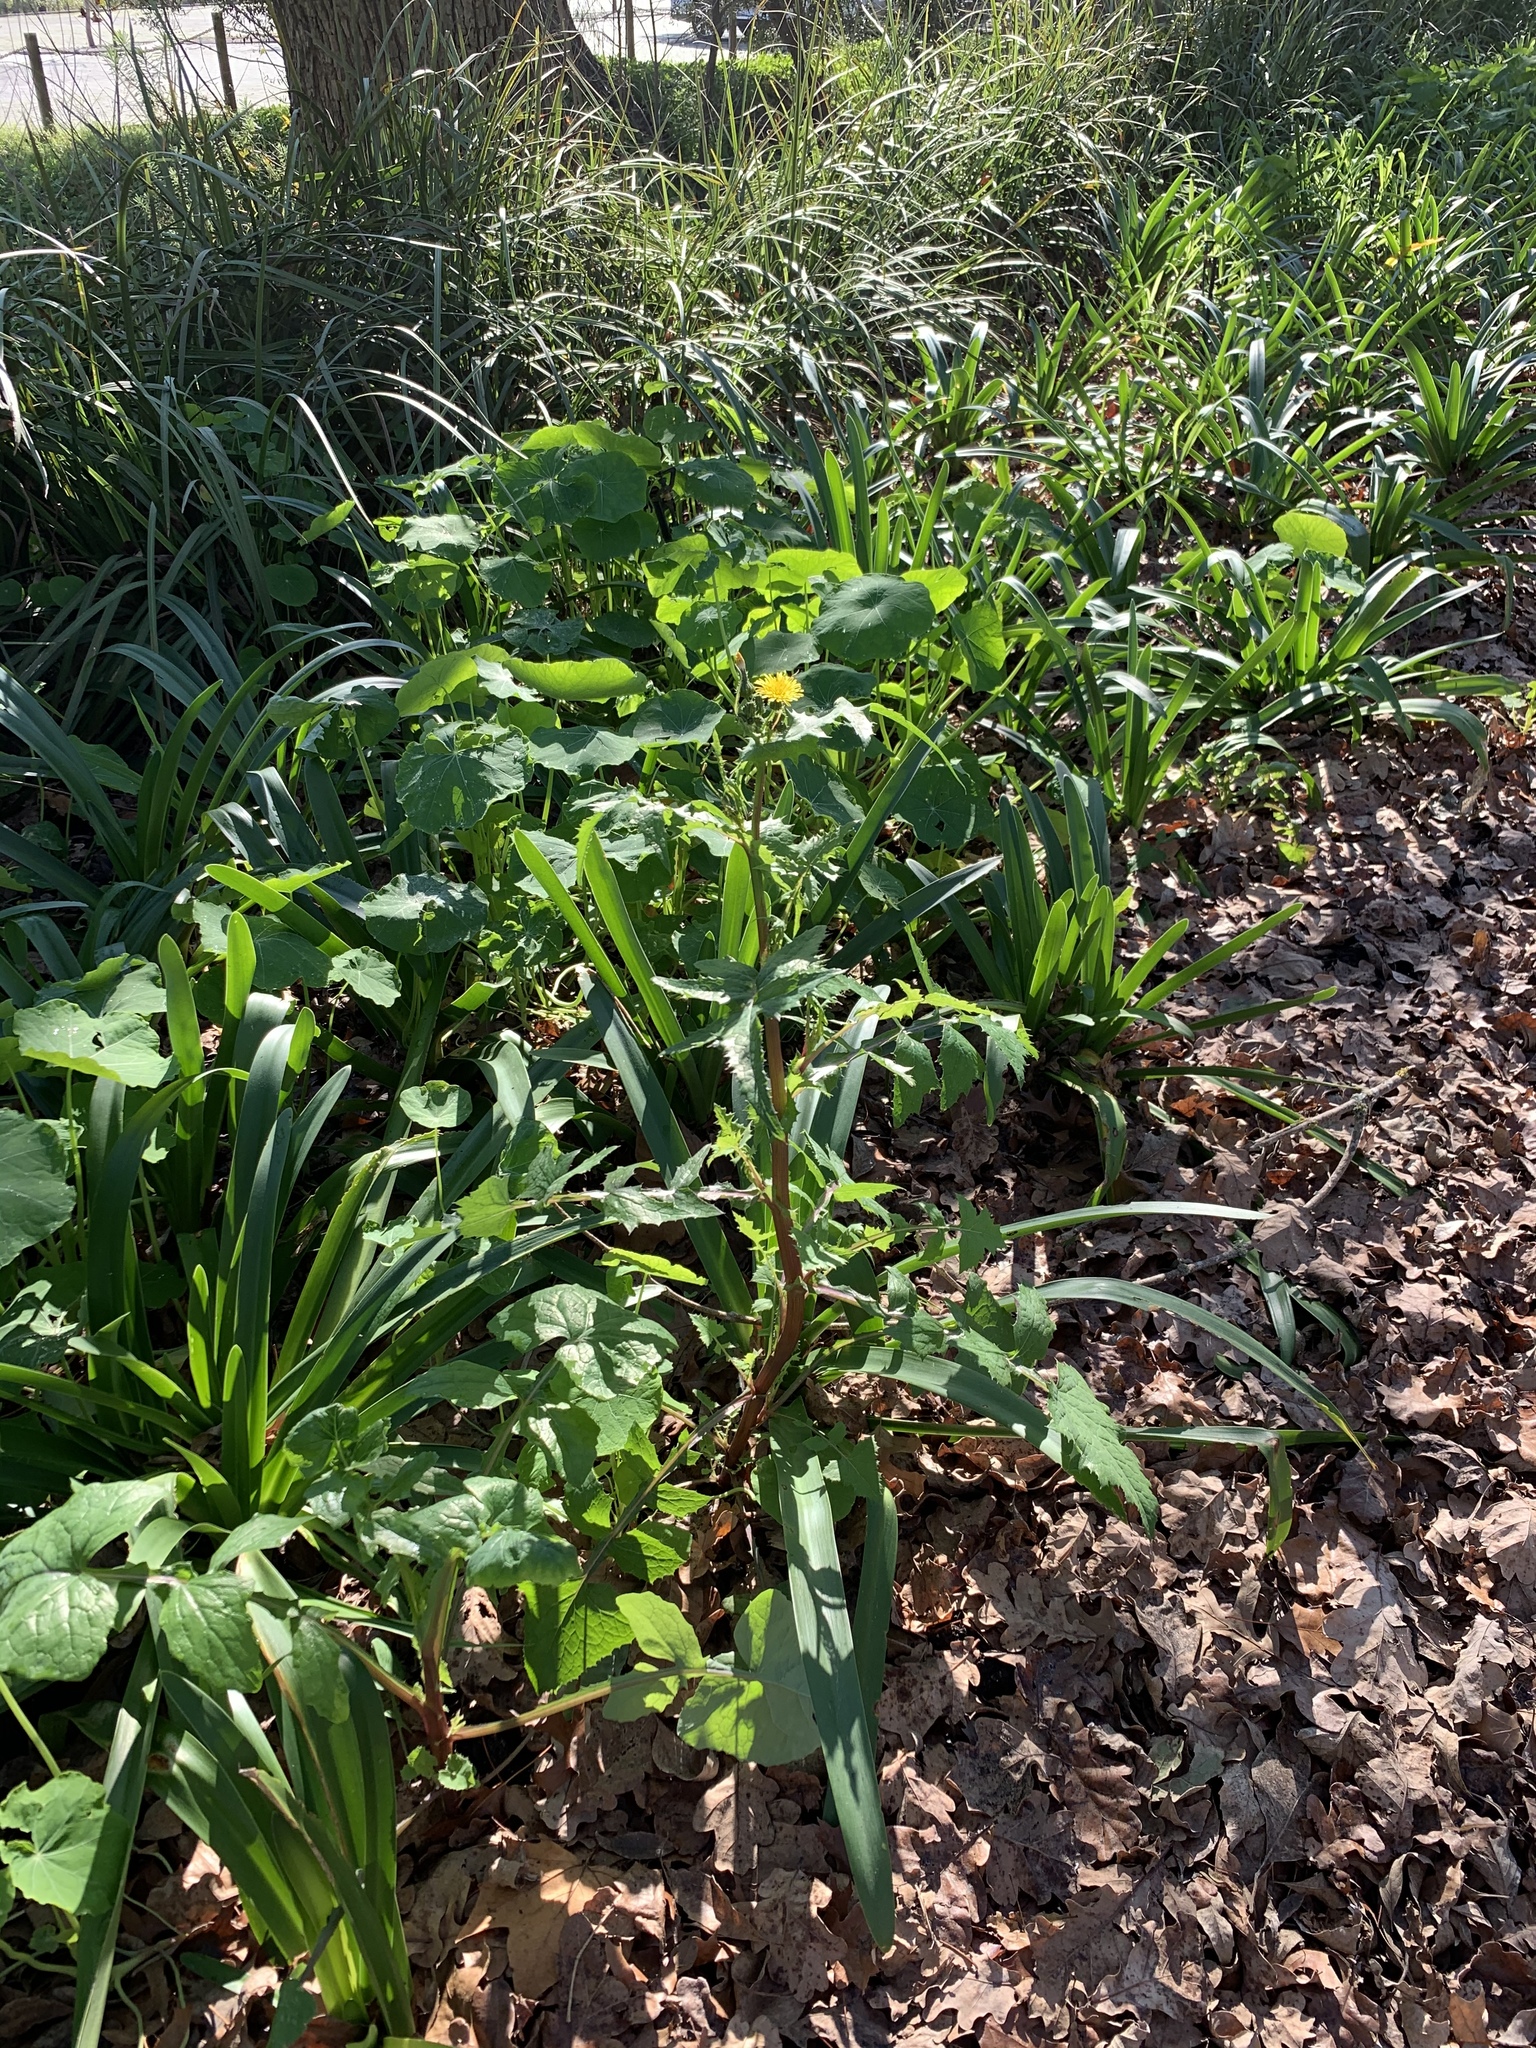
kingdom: Plantae
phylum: Tracheophyta
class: Magnoliopsida
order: Asterales
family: Asteraceae
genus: Sonchus
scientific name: Sonchus oleraceus
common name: Common sowthistle
